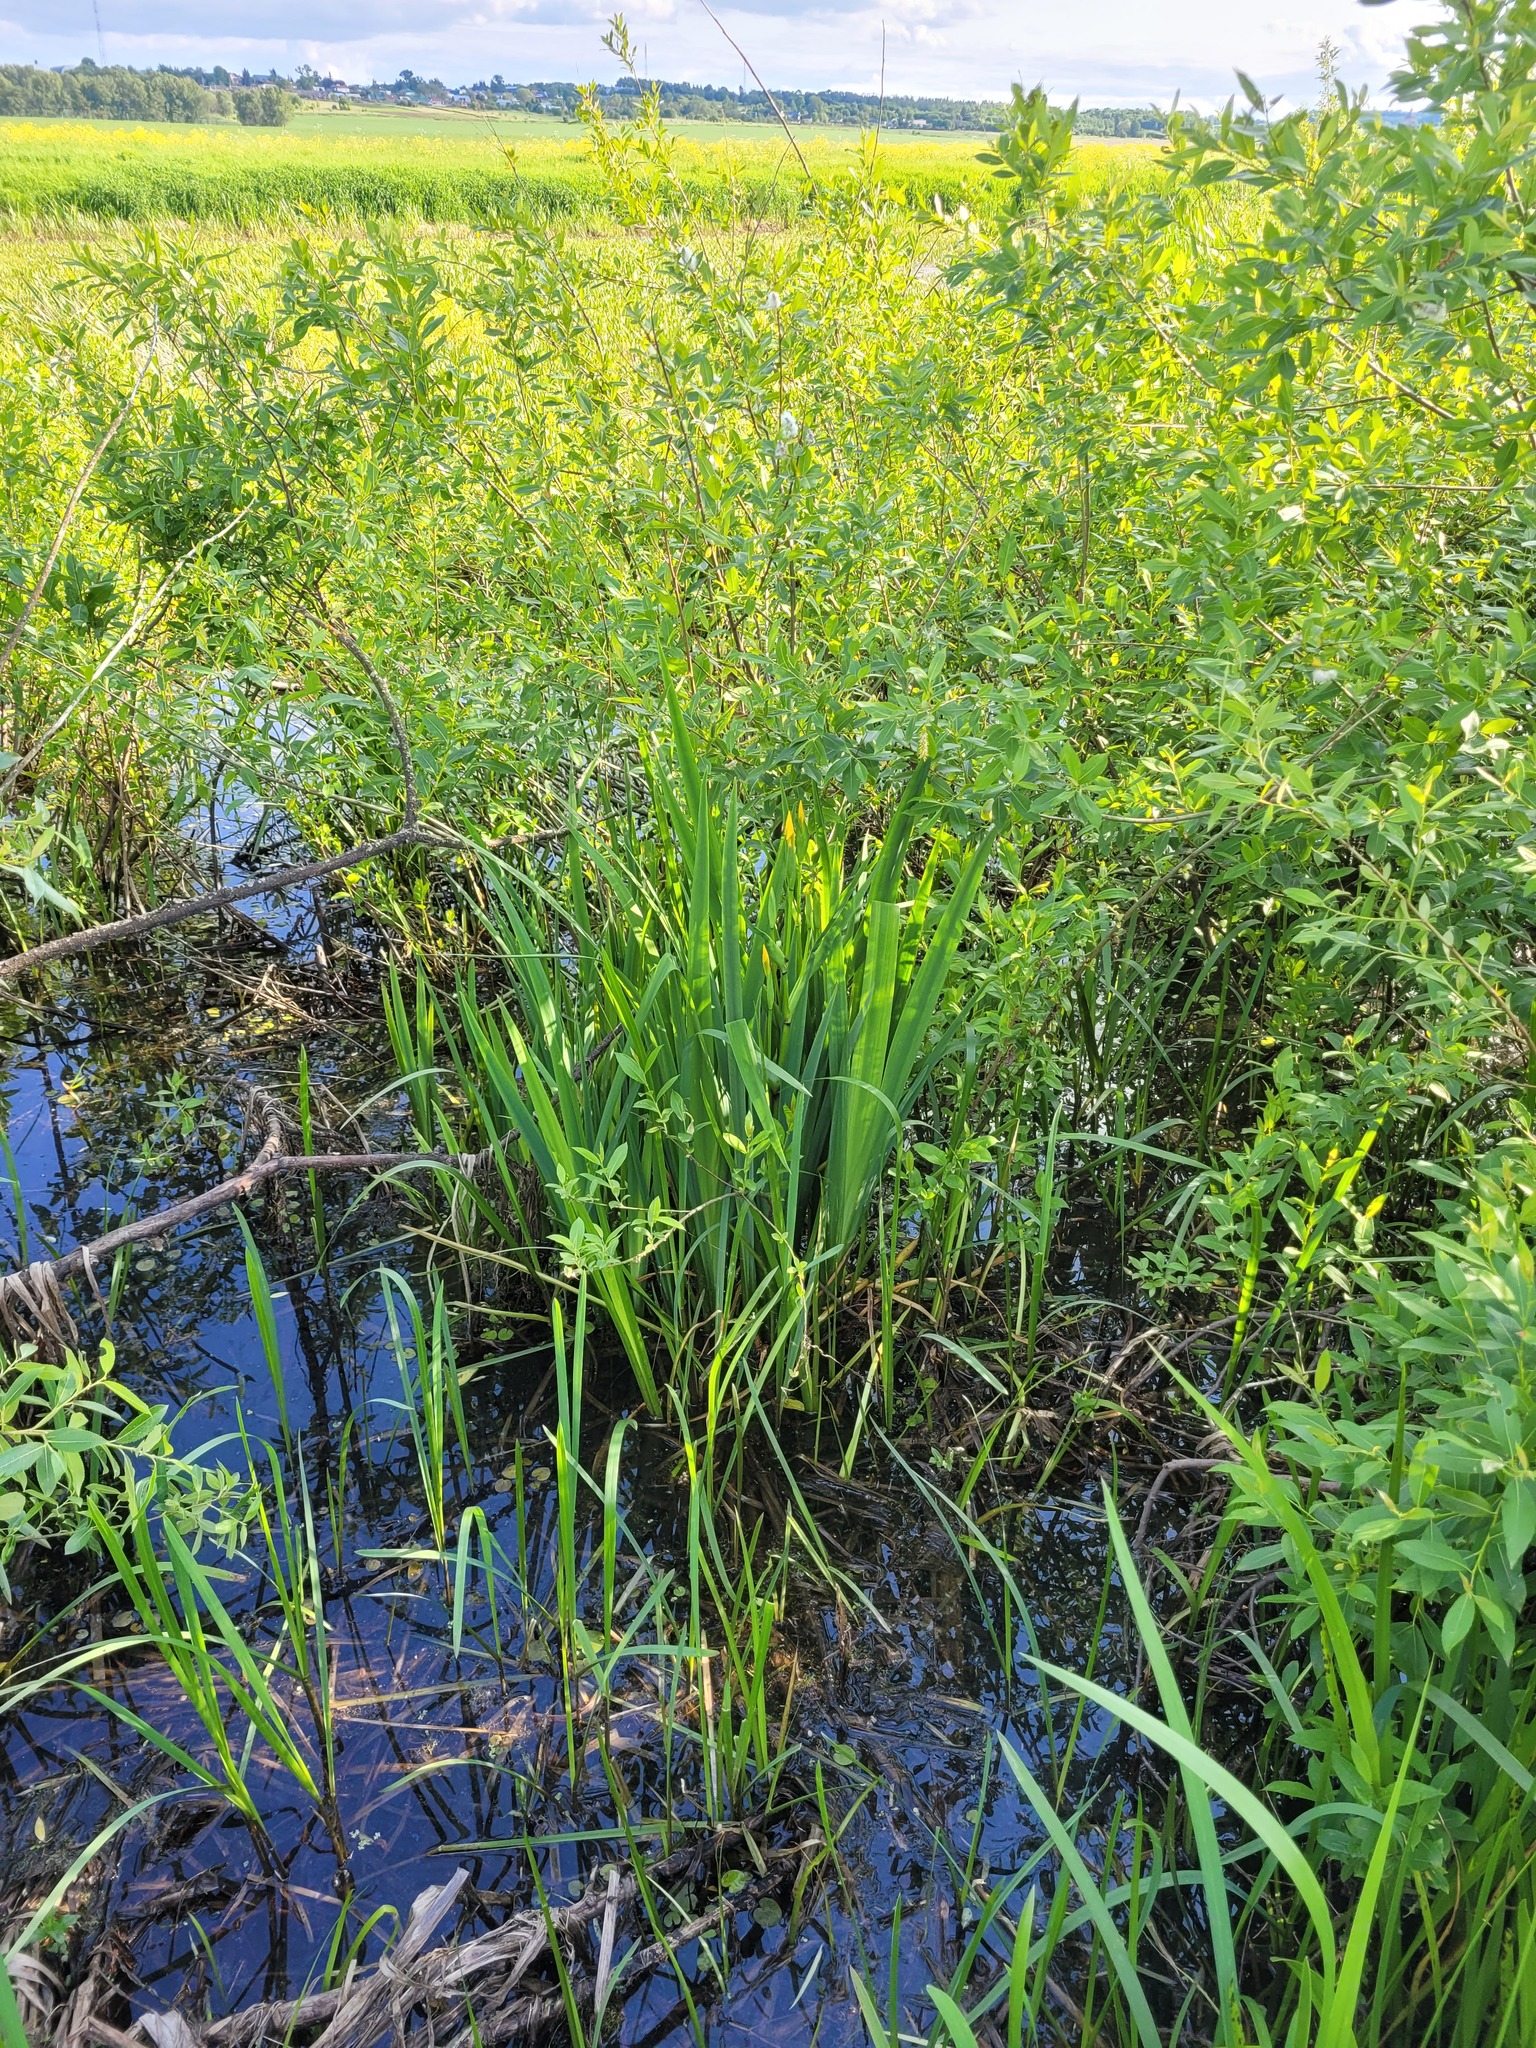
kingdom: Plantae
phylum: Tracheophyta
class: Liliopsida
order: Asparagales
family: Iridaceae
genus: Iris
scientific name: Iris pseudacorus
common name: Yellow flag
